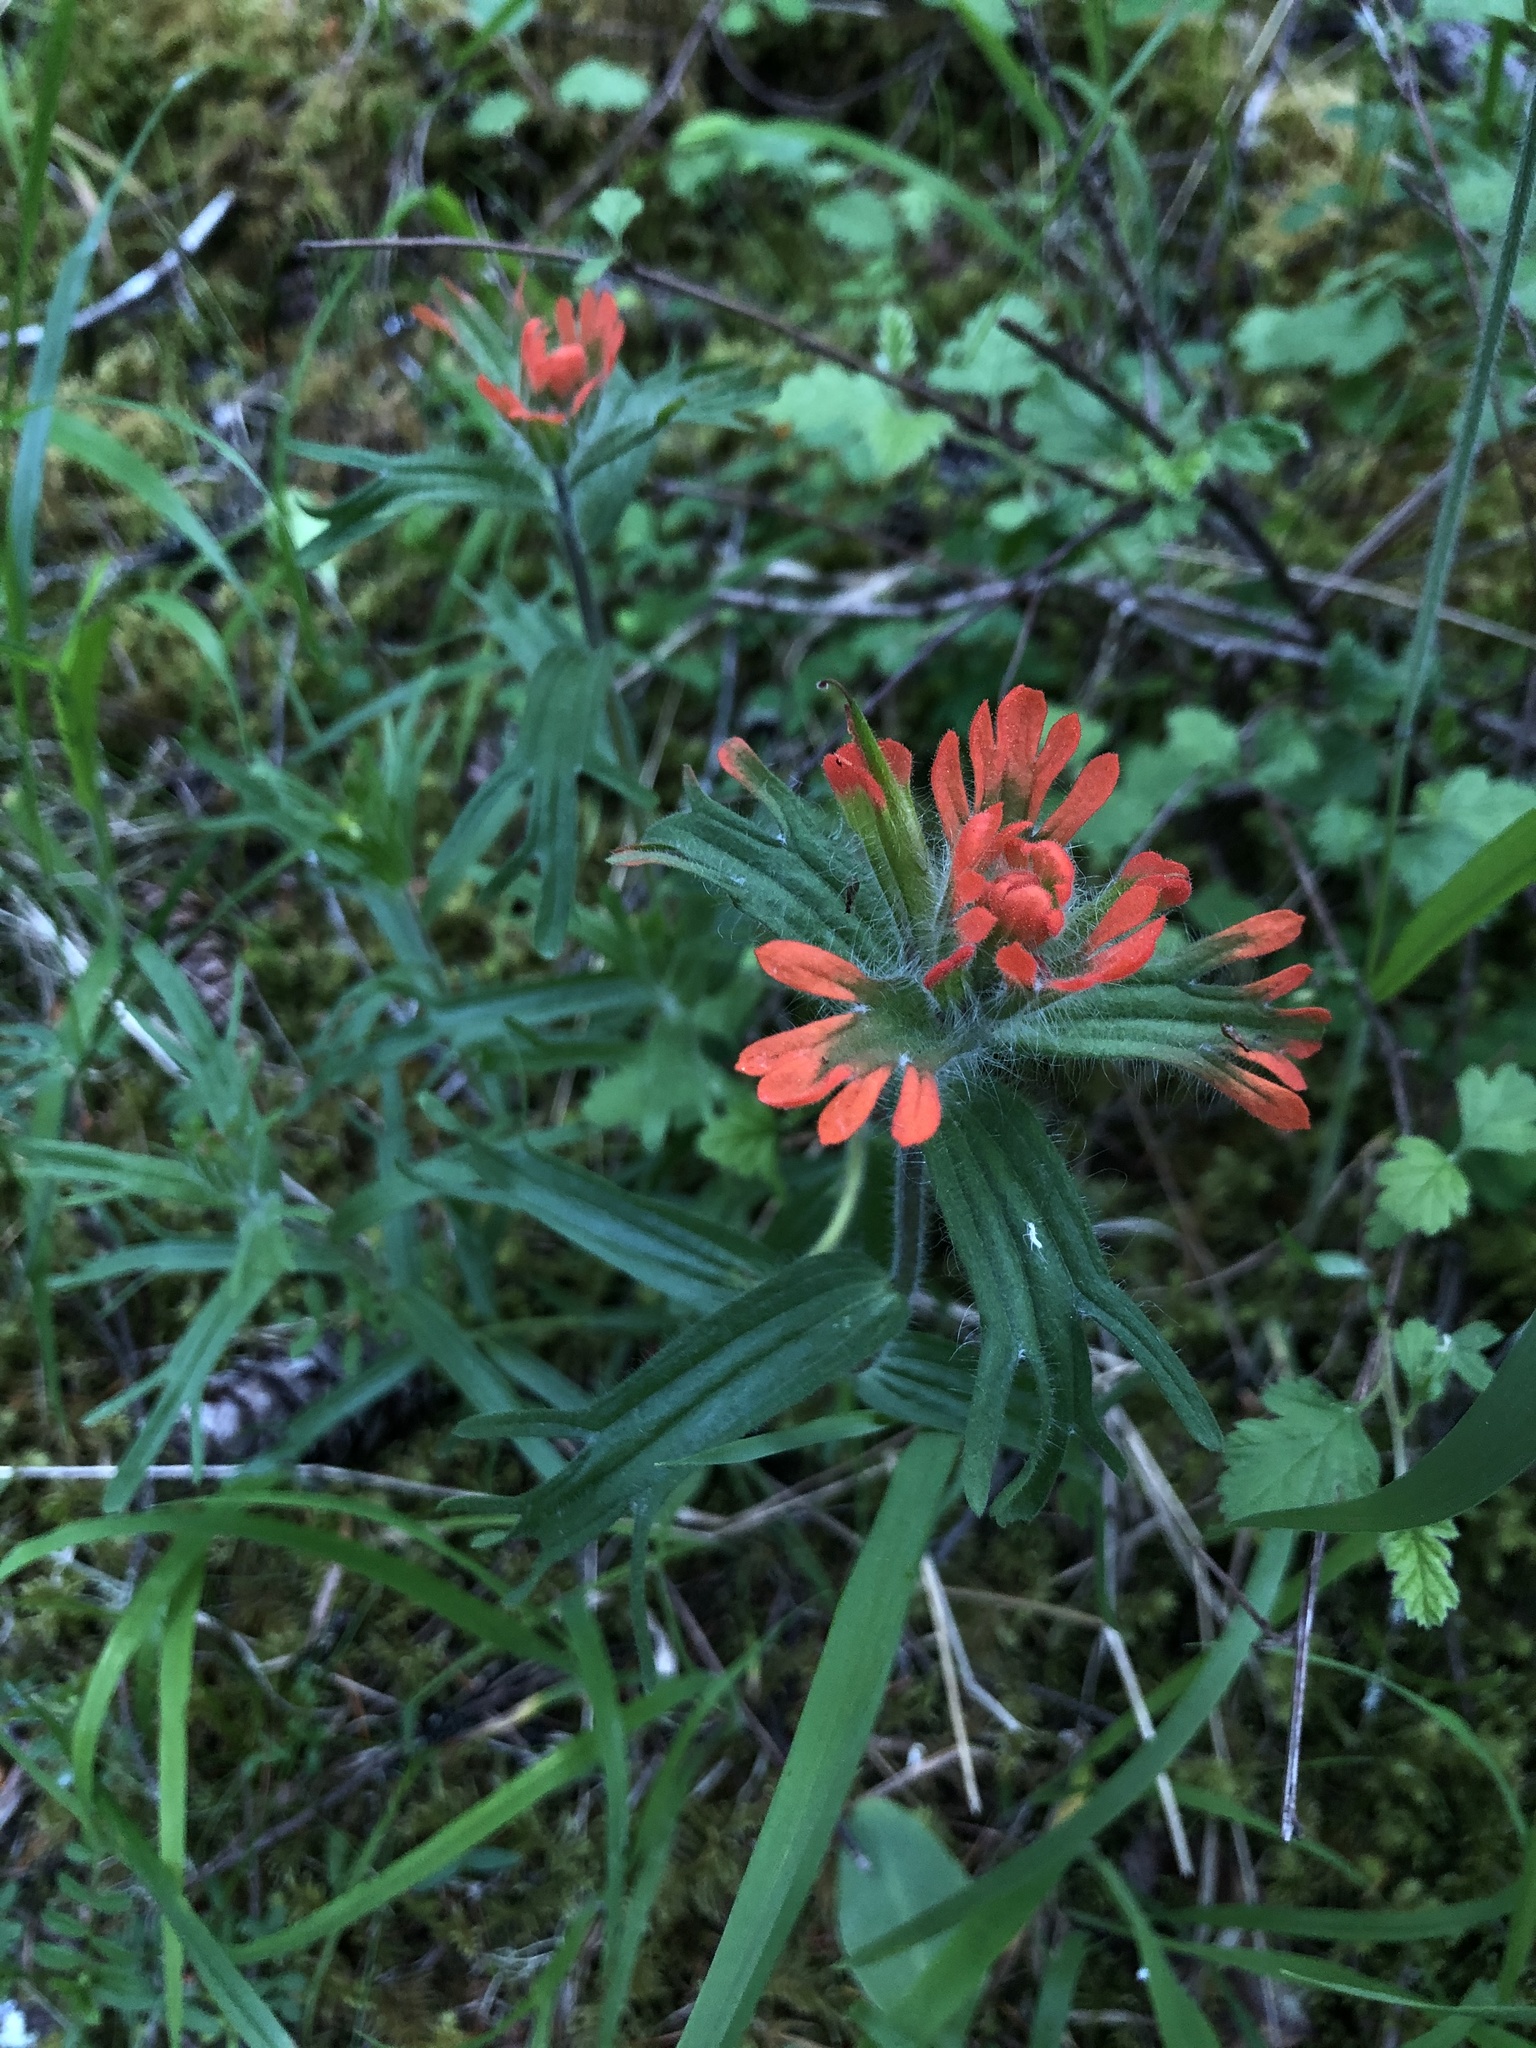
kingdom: Plantae
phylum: Tracheophyta
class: Magnoliopsida
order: Lamiales
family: Orobanchaceae
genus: Castilleja
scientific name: Castilleja hispida
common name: Bristly paintbrush
